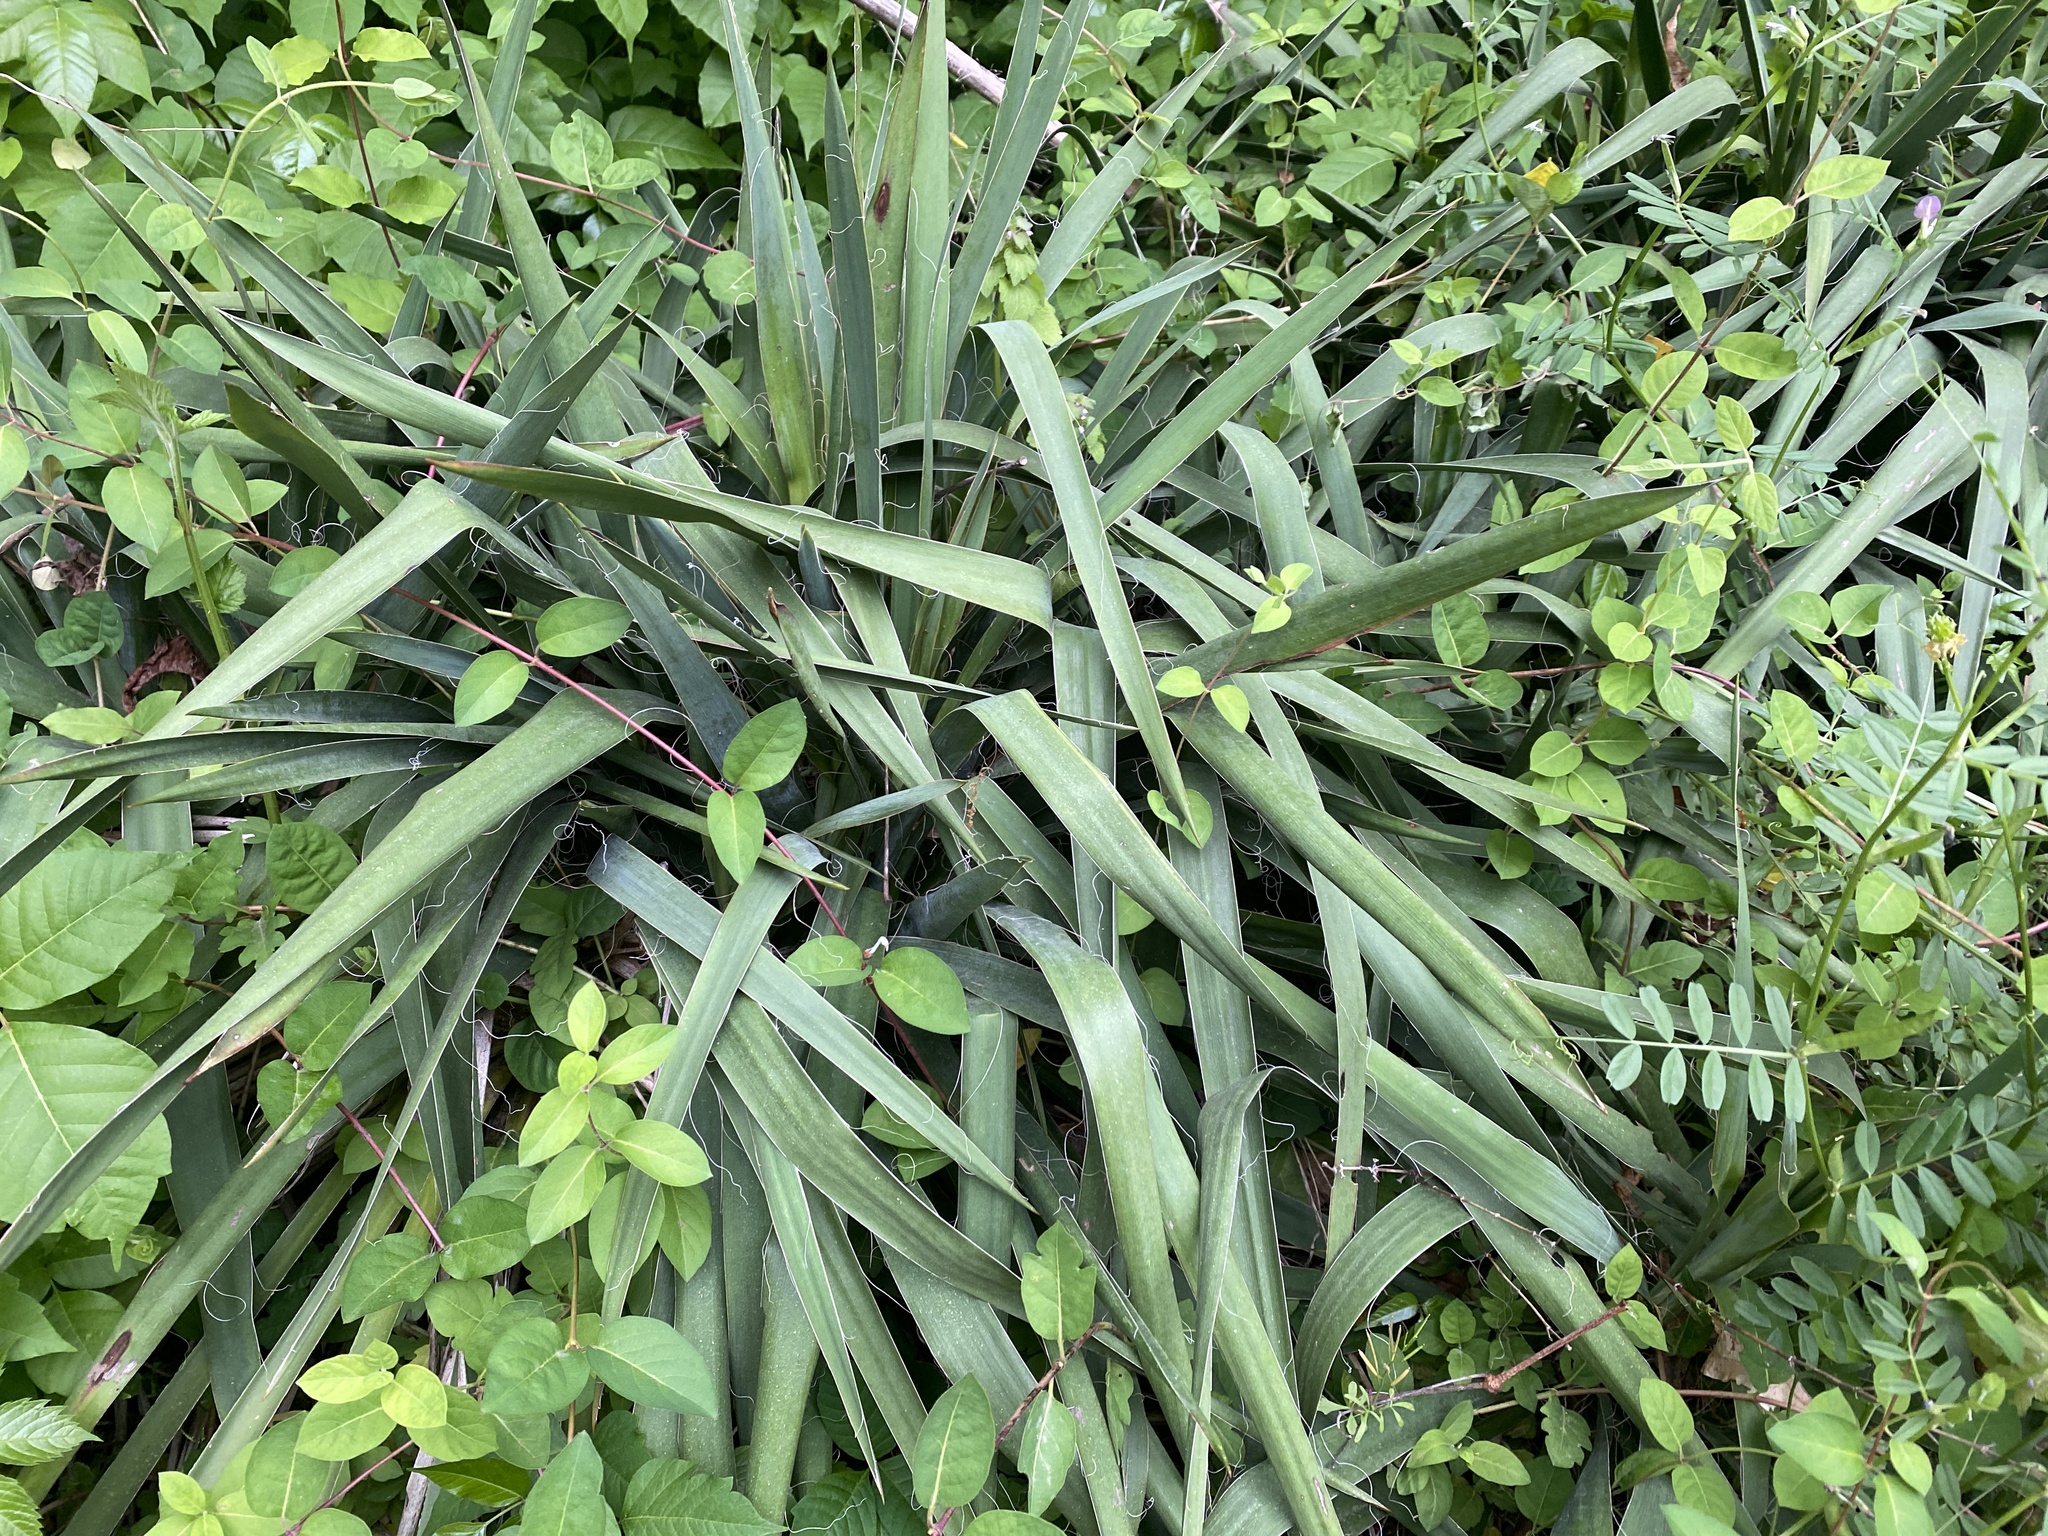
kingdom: Plantae
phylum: Tracheophyta
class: Liliopsida
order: Asparagales
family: Asparagaceae
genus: Yucca
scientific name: Yucca filamentosa
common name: Adam's-needle
